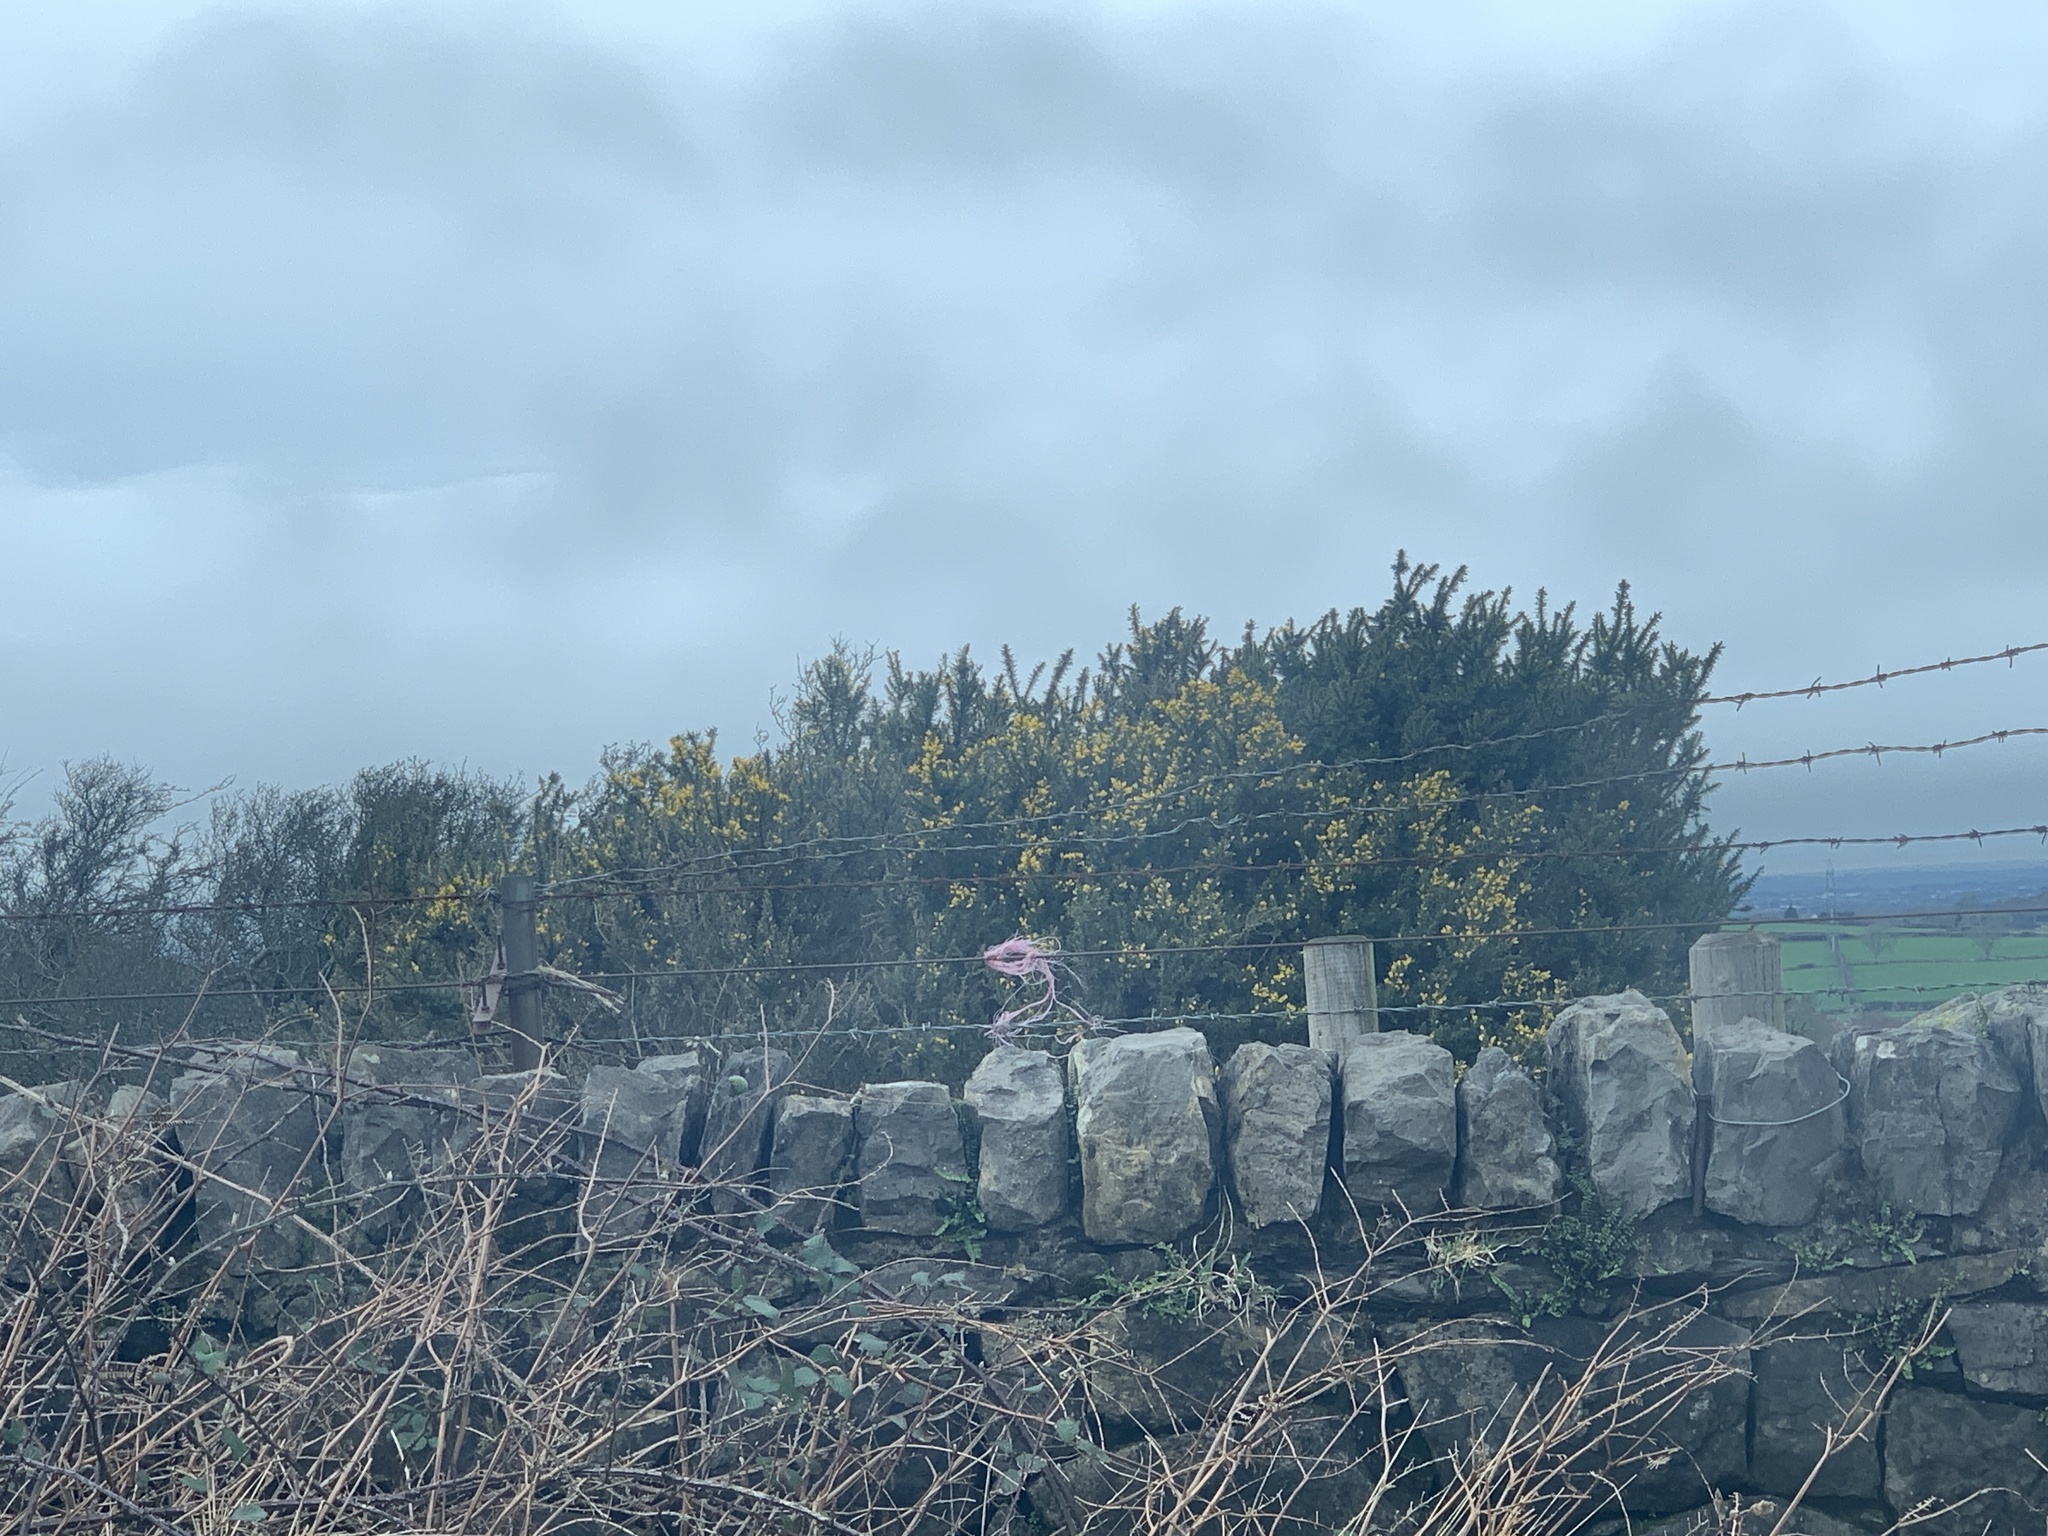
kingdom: Plantae
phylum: Tracheophyta
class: Magnoliopsida
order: Fabales
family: Fabaceae
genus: Ulex
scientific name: Ulex europaeus
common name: Common gorse
